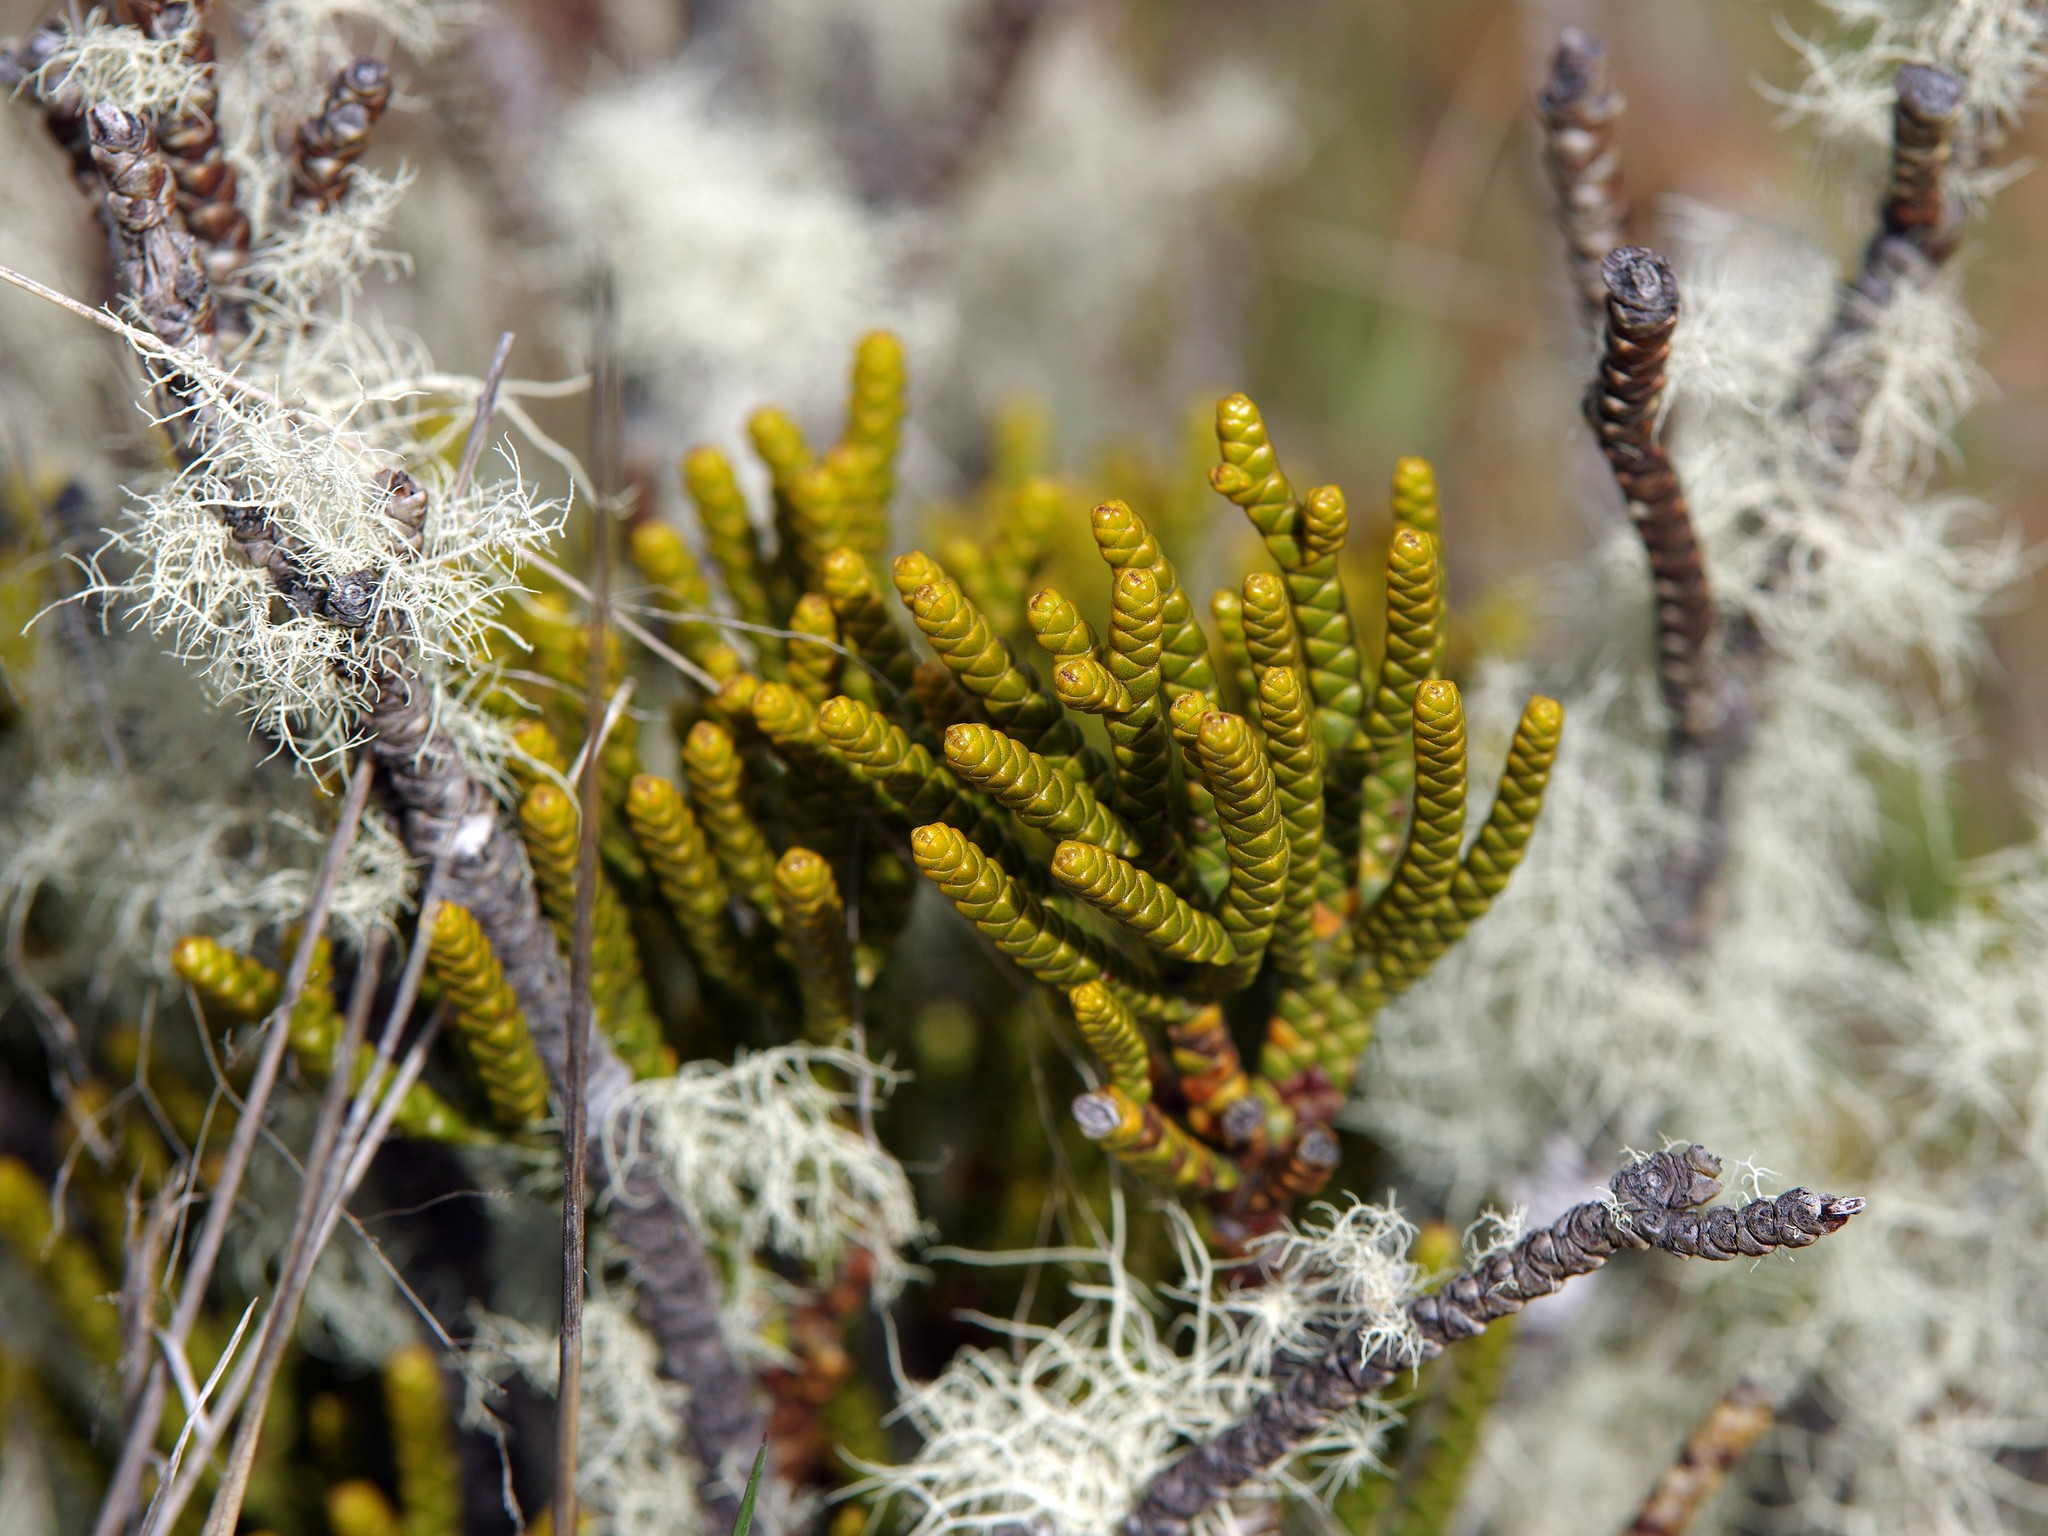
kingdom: Plantae
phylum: Tracheophyta
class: Magnoliopsida
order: Lamiales
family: Plantaginaceae
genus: Veronica
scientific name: Veronica hectorii
